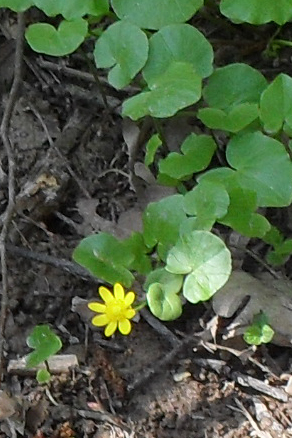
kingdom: Plantae
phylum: Tracheophyta
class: Magnoliopsida
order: Ranunculales
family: Ranunculaceae
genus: Ficaria
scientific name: Ficaria verna
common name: Lesser celandine
